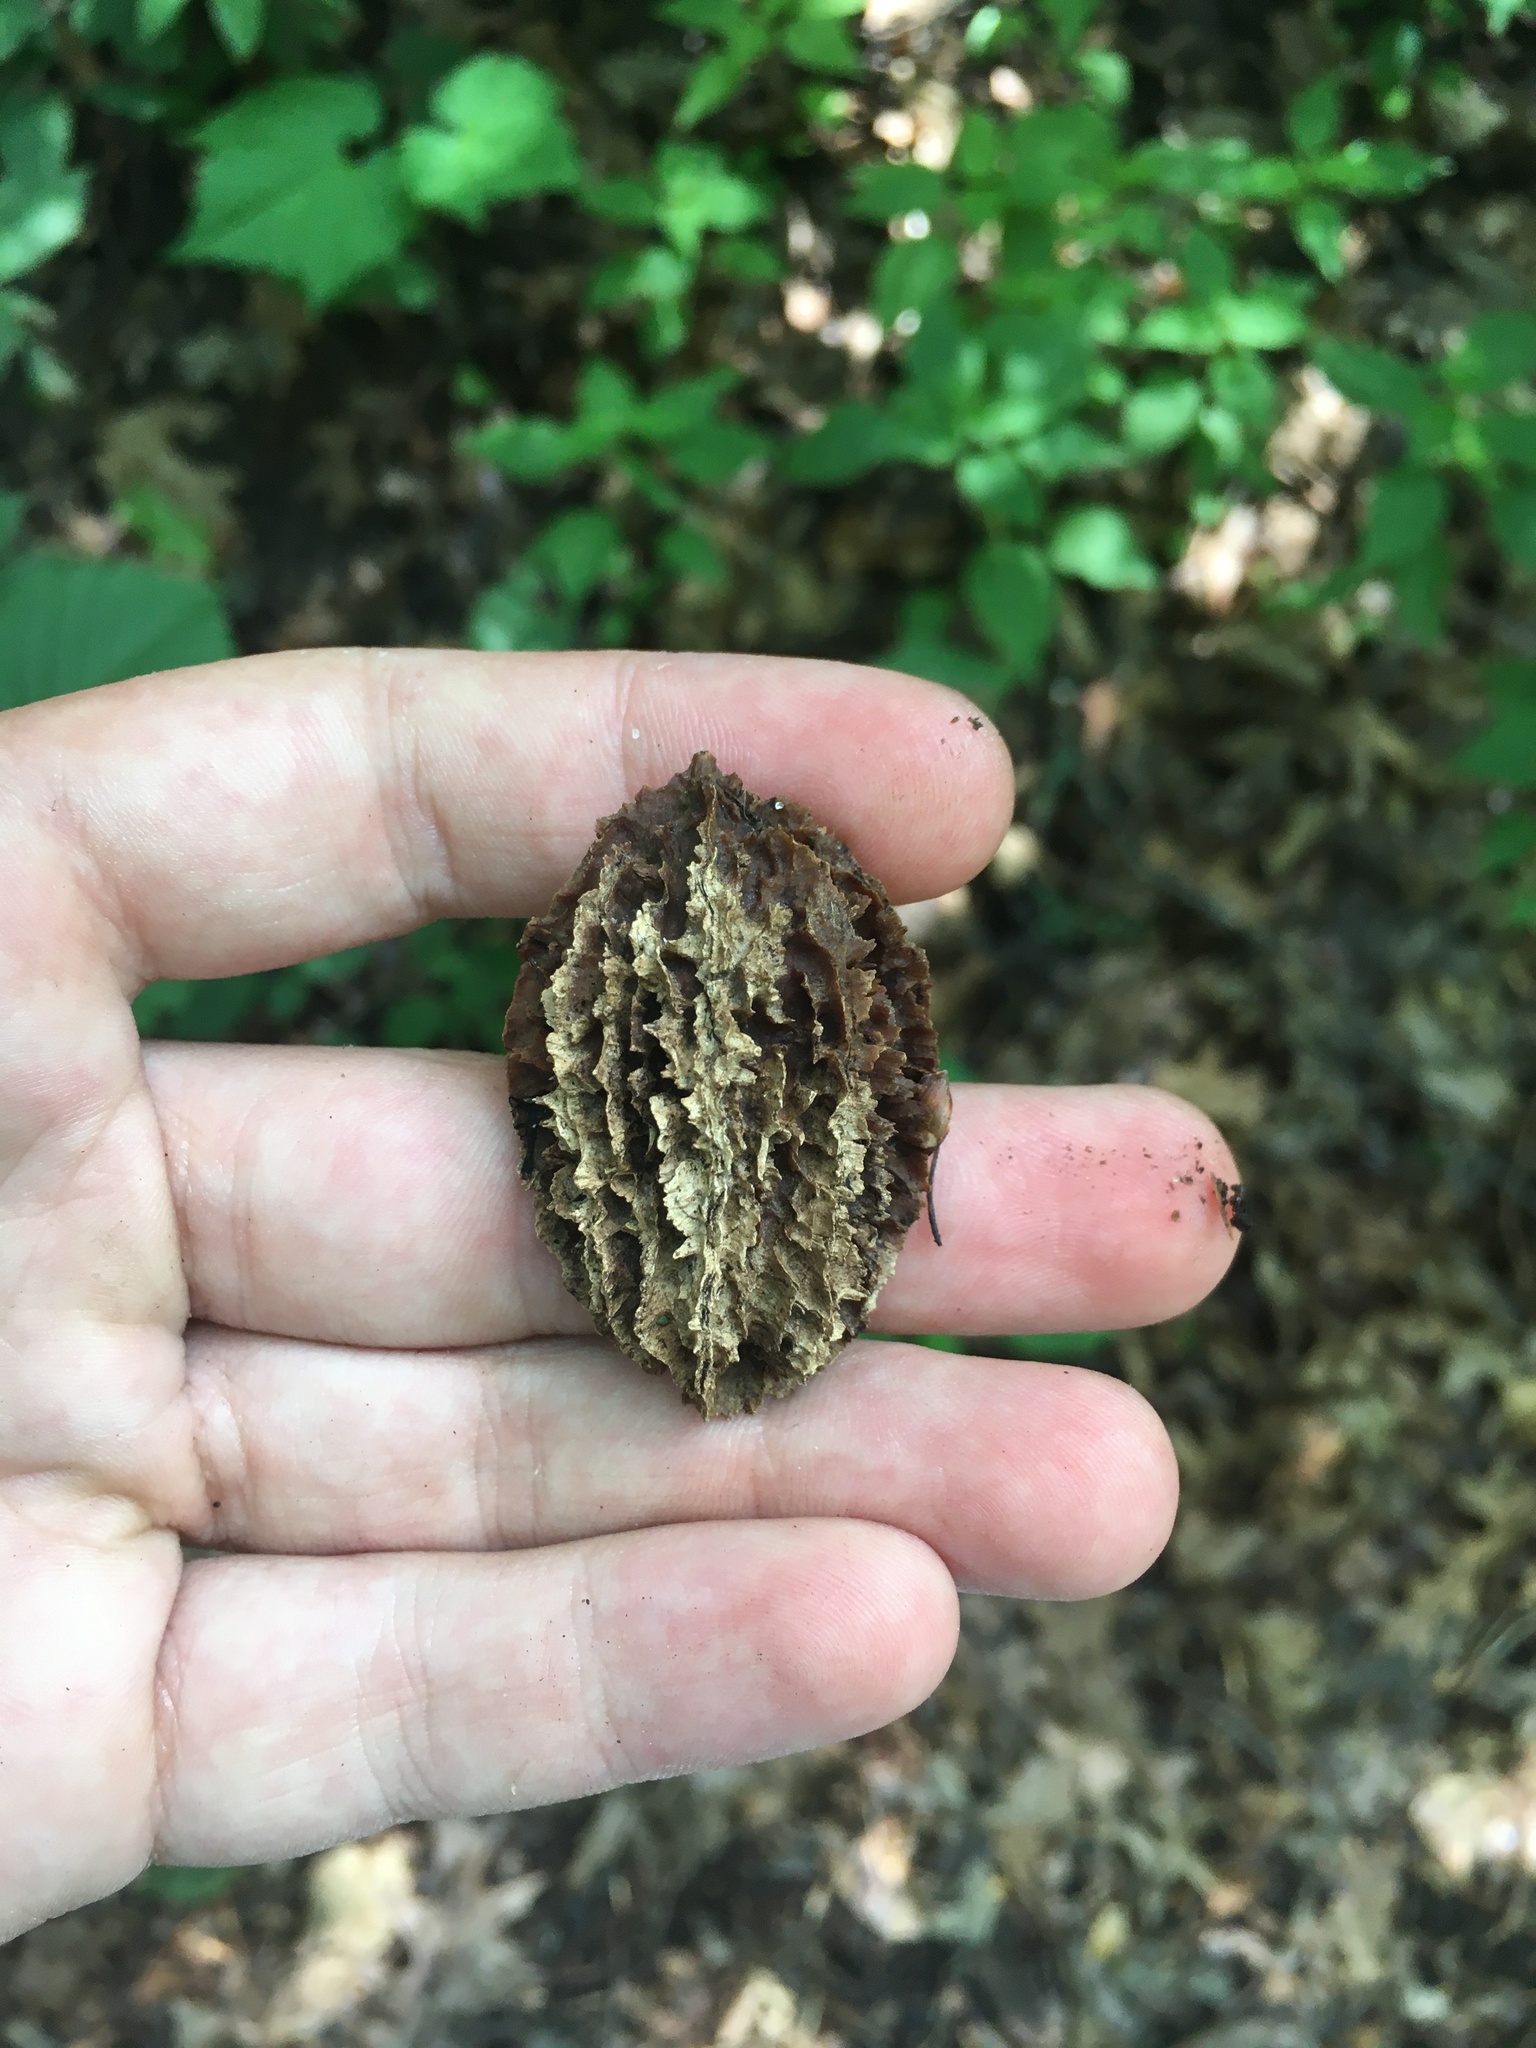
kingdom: Plantae
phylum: Tracheophyta
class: Magnoliopsida
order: Fagales
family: Juglandaceae
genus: Juglans
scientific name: Juglans cinerea
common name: Butternut
